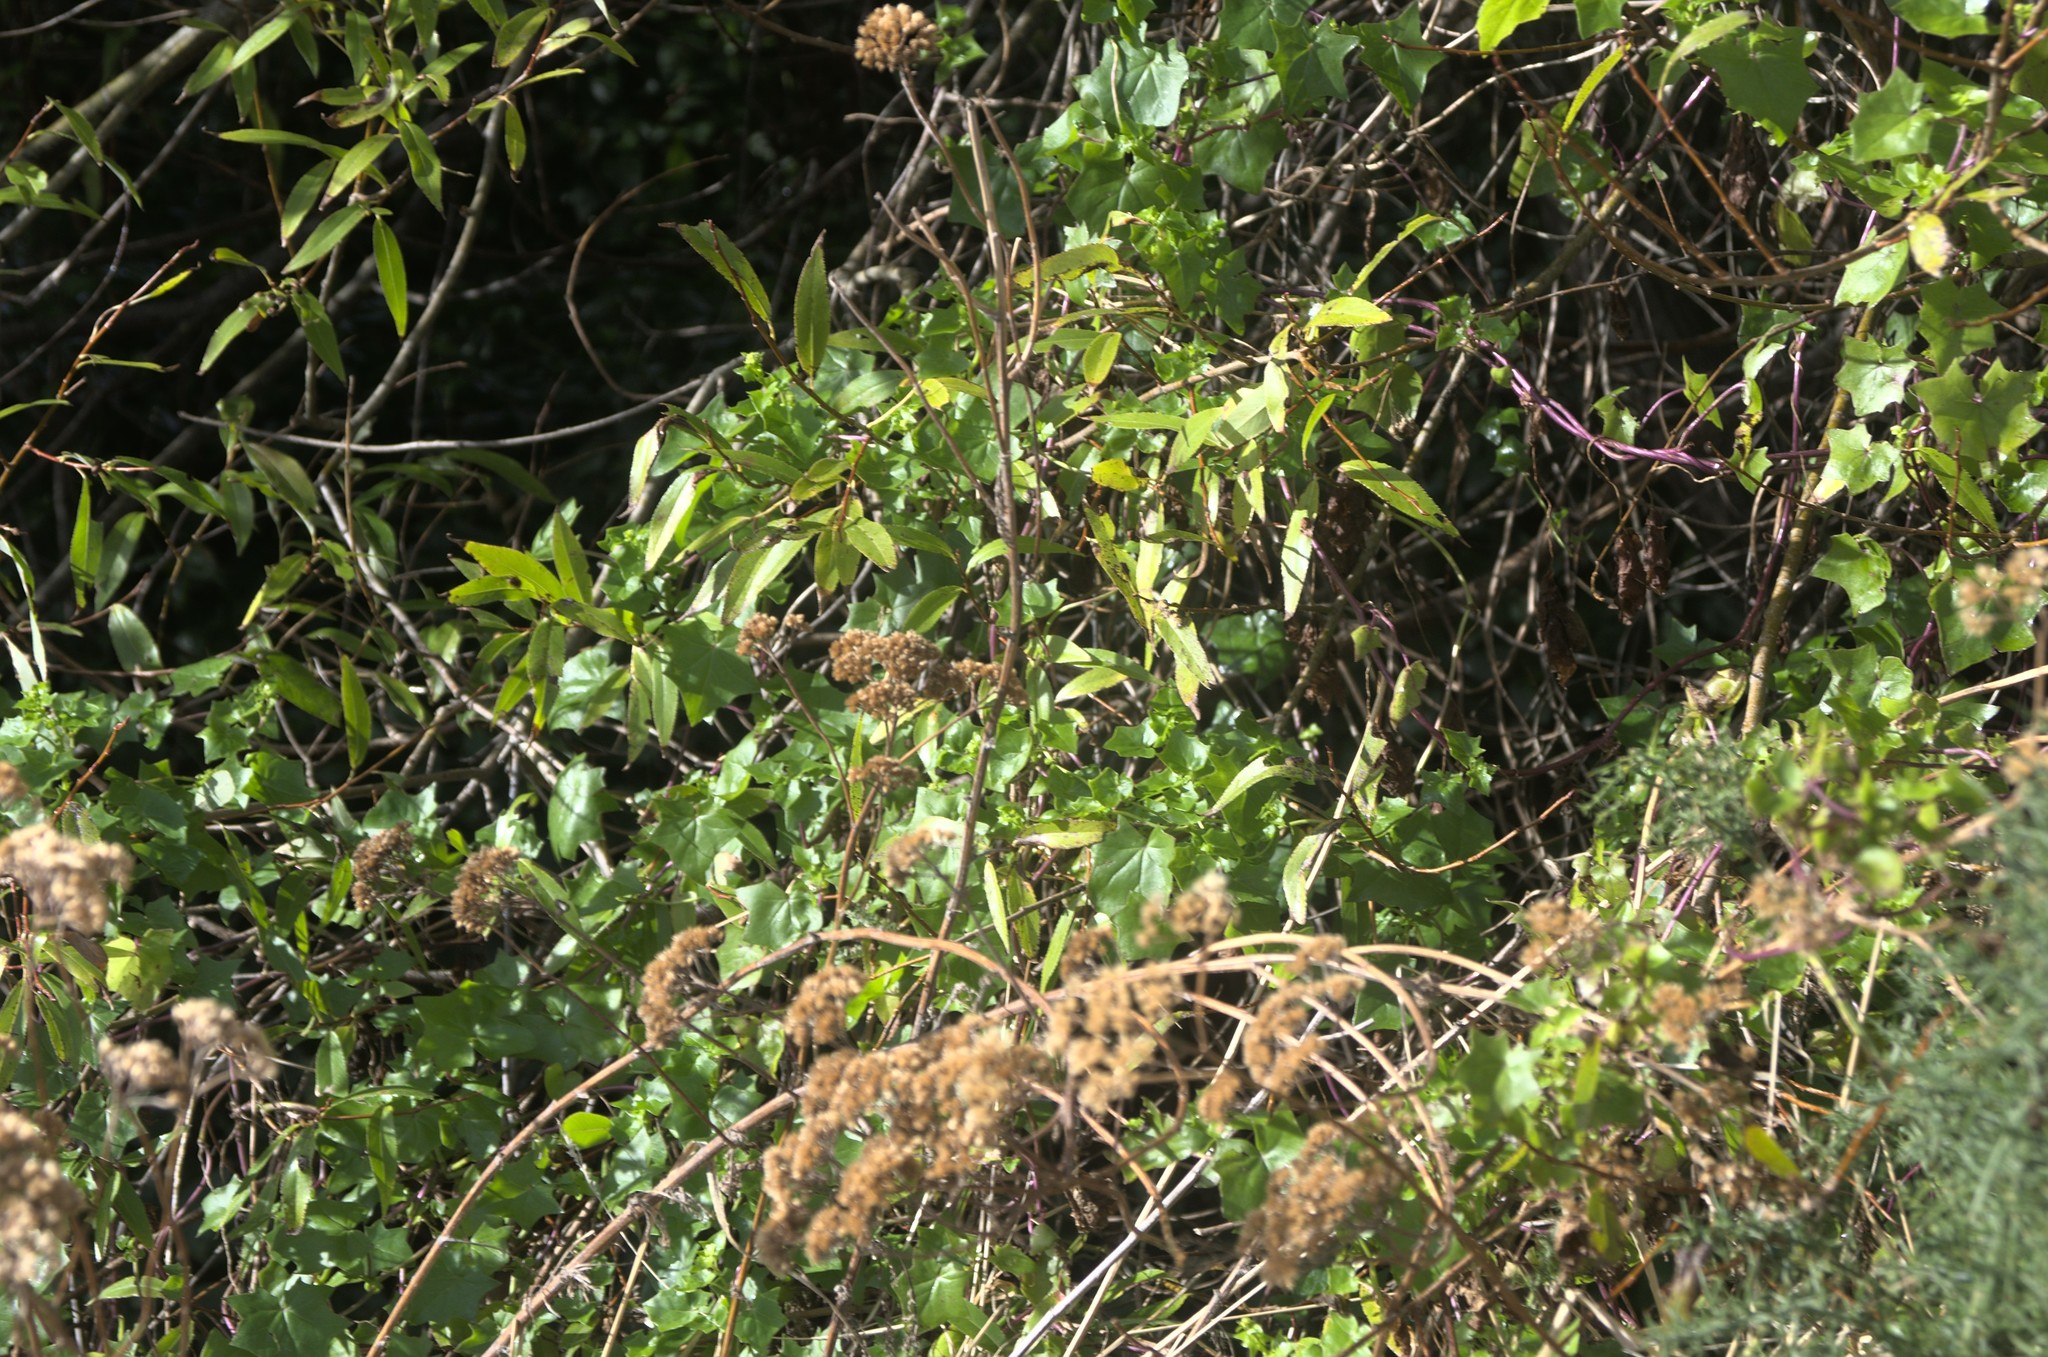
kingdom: Plantae
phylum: Tracheophyta
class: Magnoliopsida
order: Asterales
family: Asteraceae
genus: Delairea
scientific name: Delairea odorata
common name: Cape-ivy
